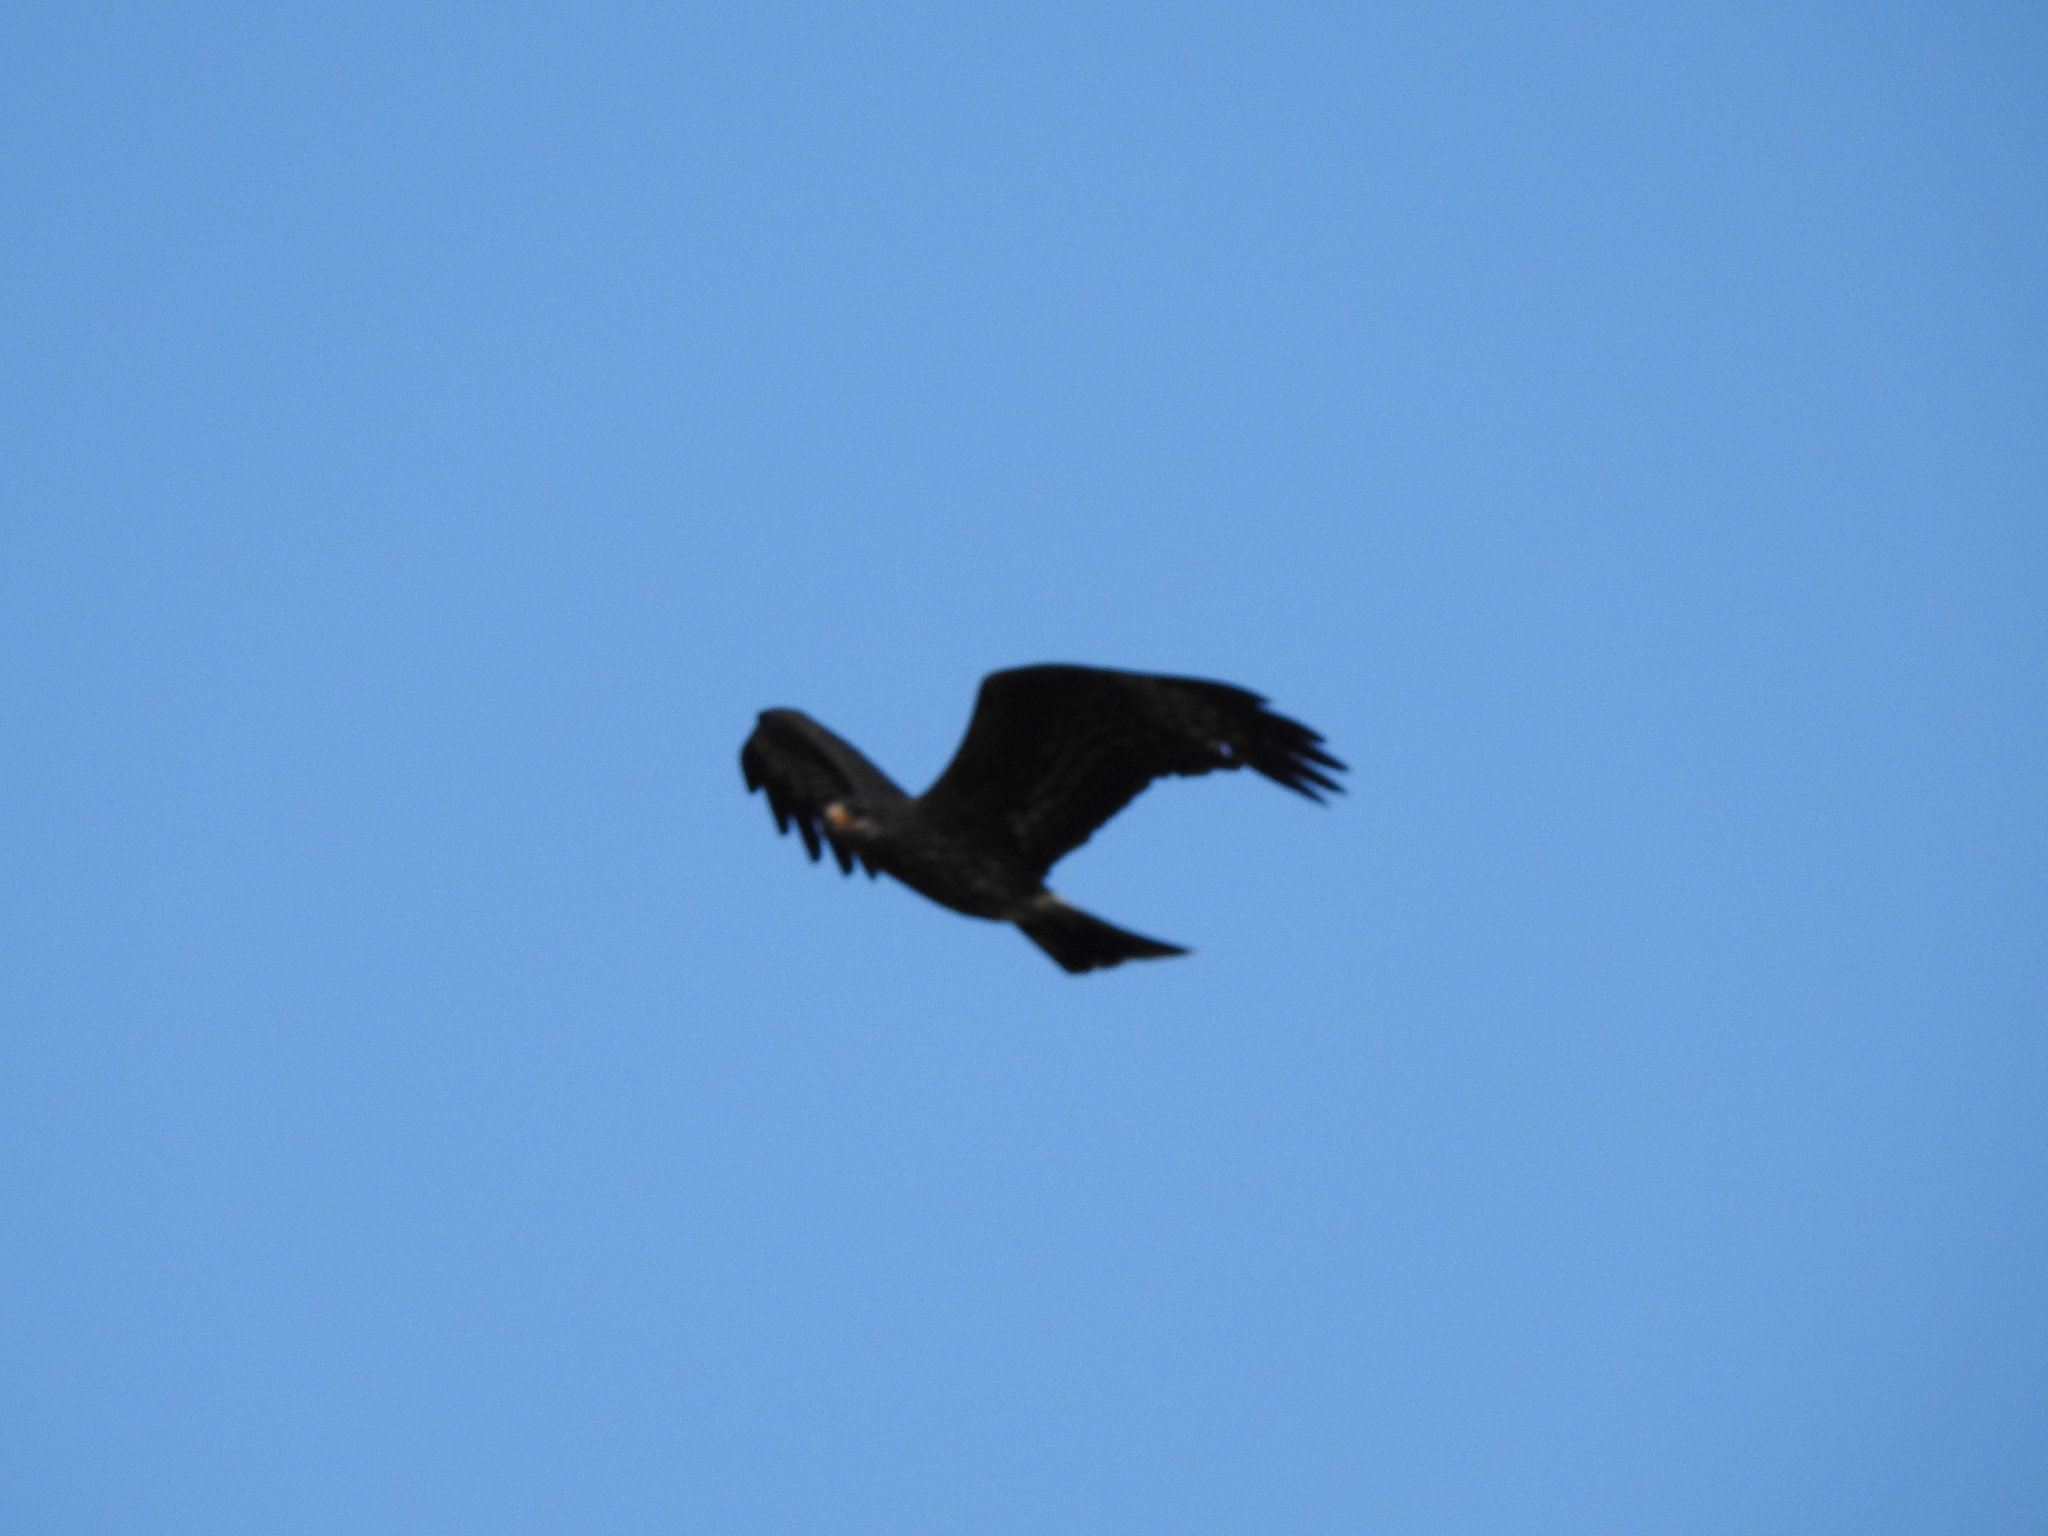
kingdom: Animalia
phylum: Chordata
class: Aves
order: Accipitriformes
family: Accipitridae
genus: Rostrhamus
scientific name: Rostrhamus sociabilis
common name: Snail kite
